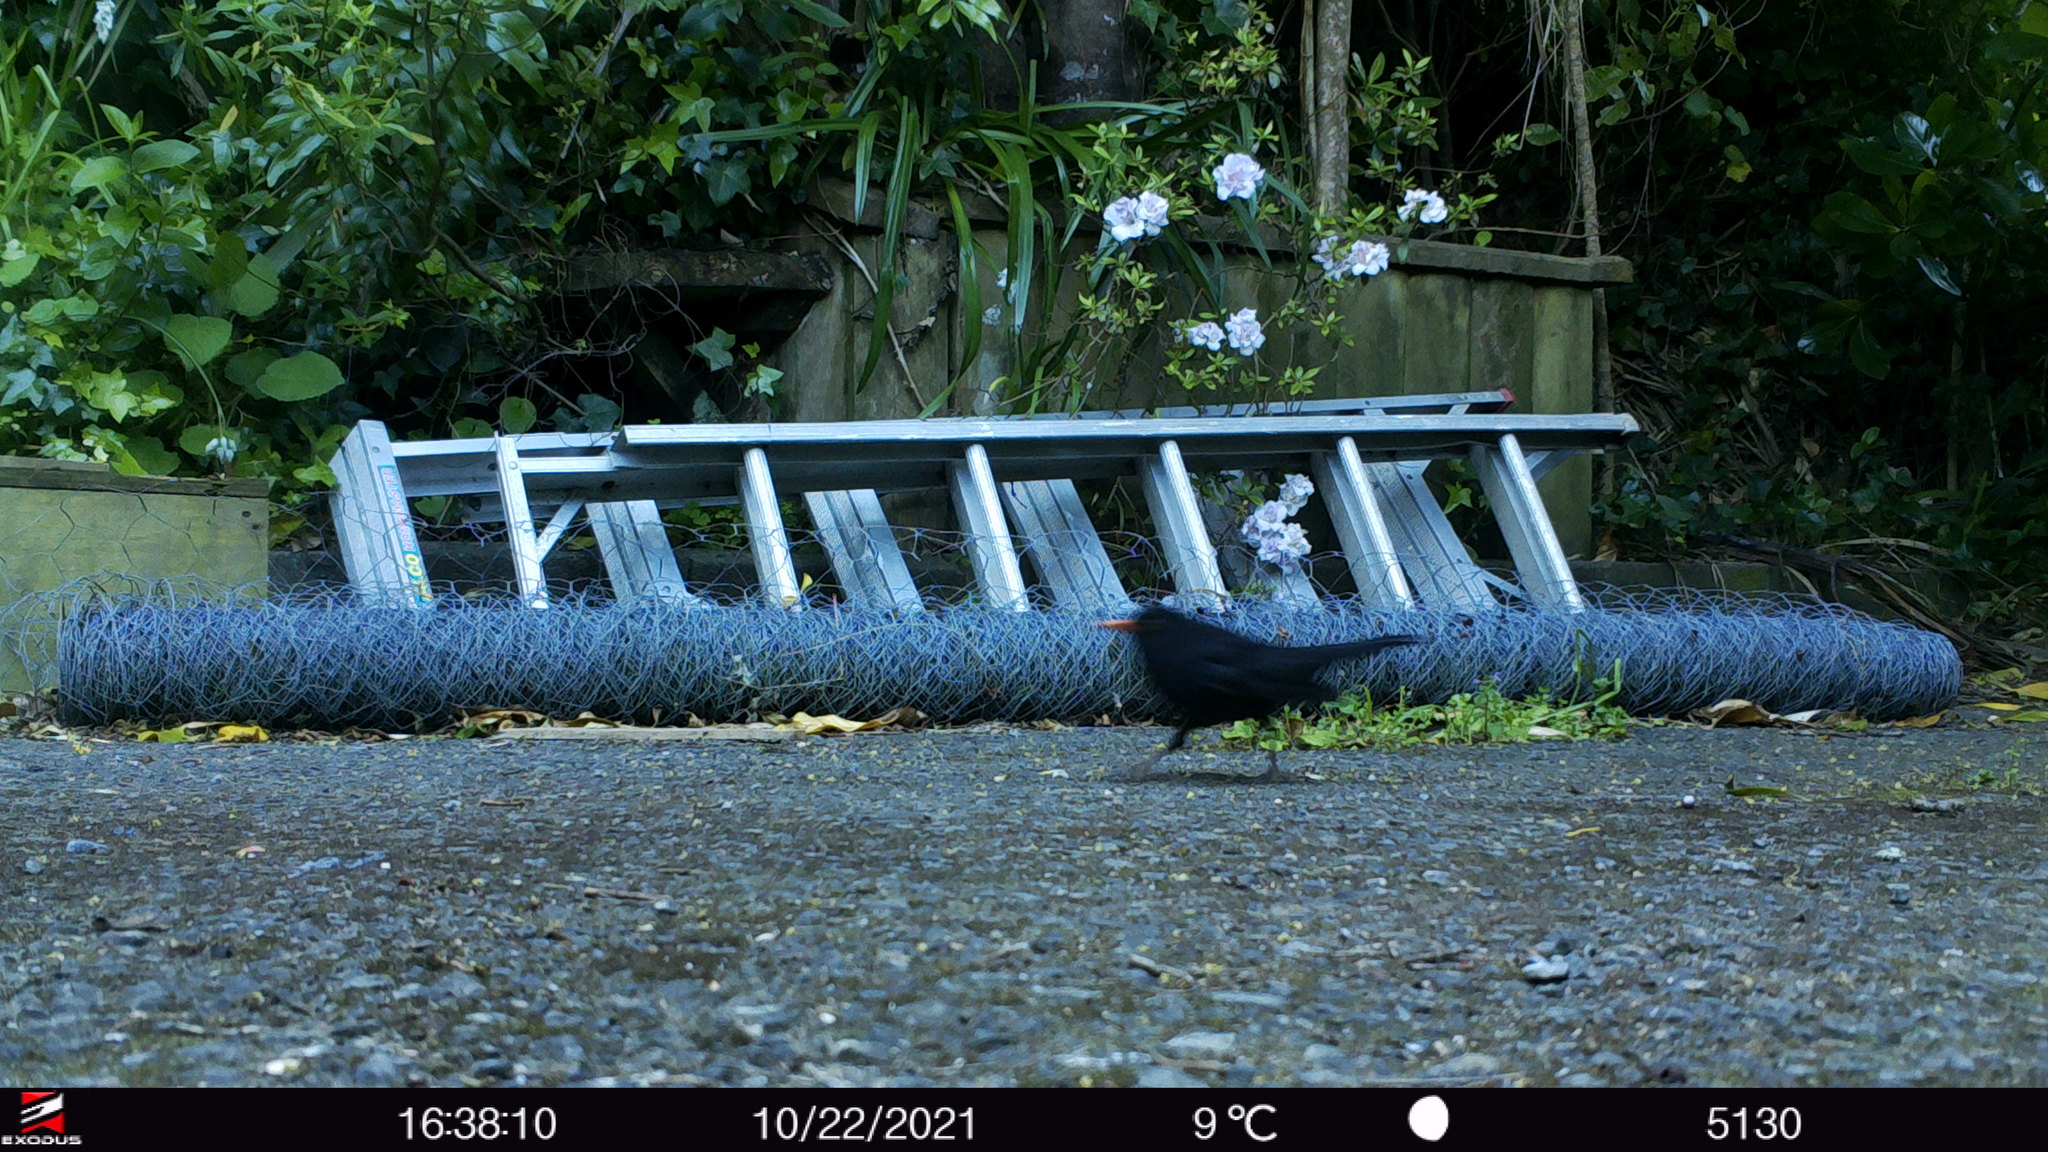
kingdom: Animalia
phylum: Chordata
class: Aves
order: Passeriformes
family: Turdidae
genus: Turdus
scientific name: Turdus merula
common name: Common blackbird
